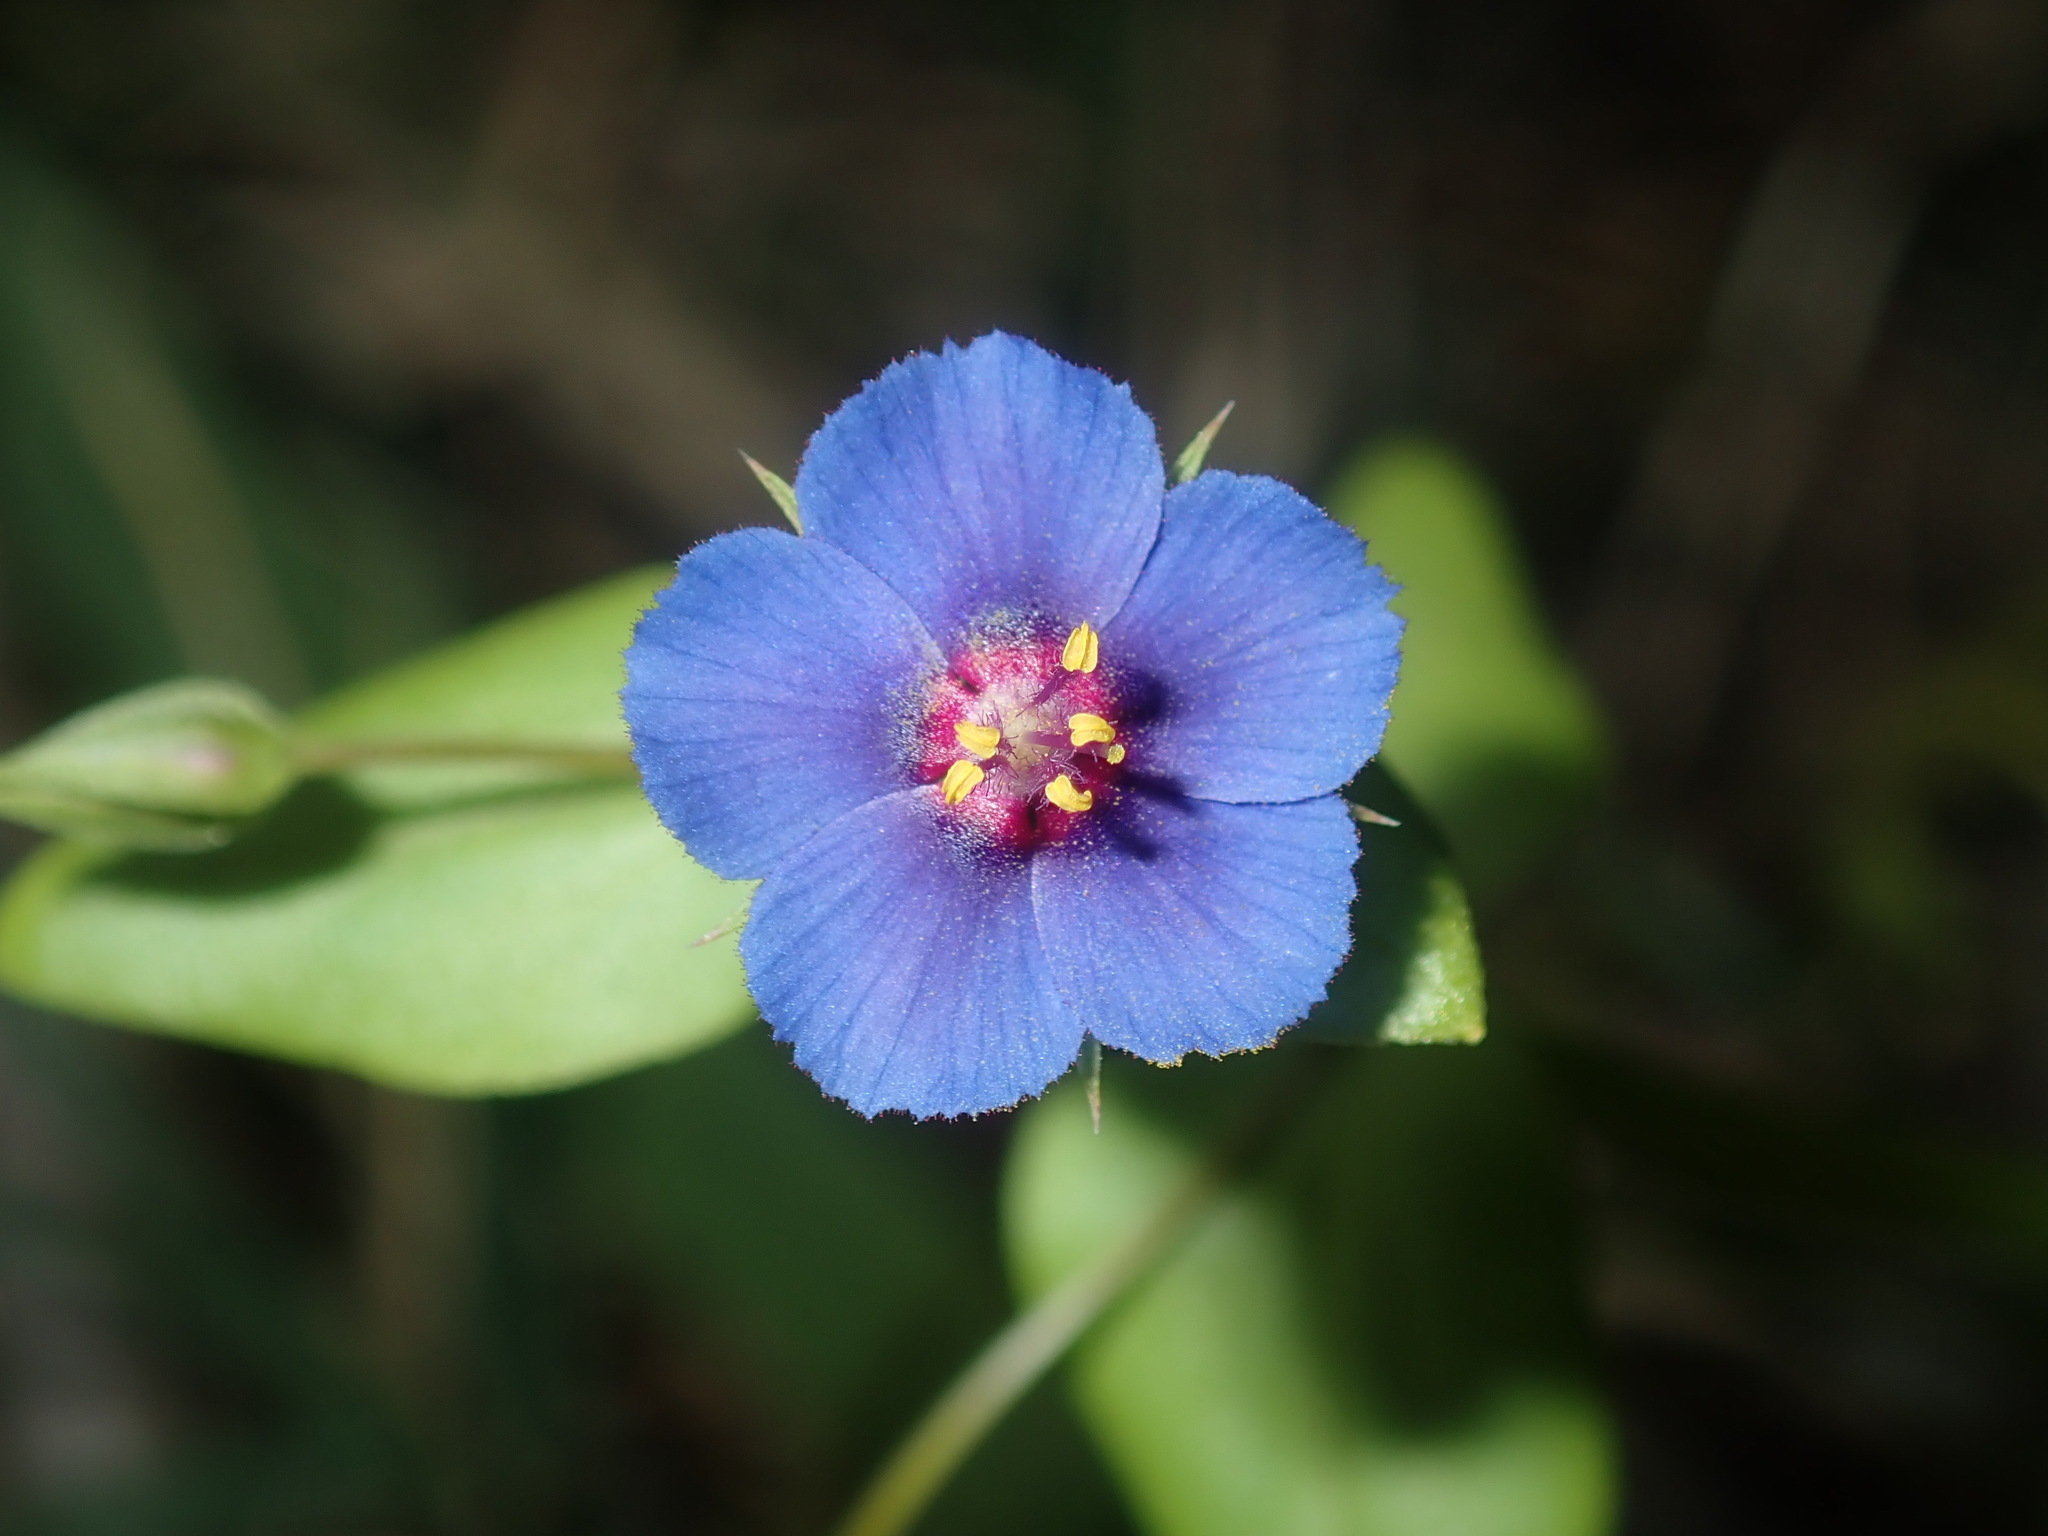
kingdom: Plantae
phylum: Tracheophyta
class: Magnoliopsida
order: Ericales
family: Primulaceae
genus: Lysimachia
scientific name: Lysimachia loeflingii
